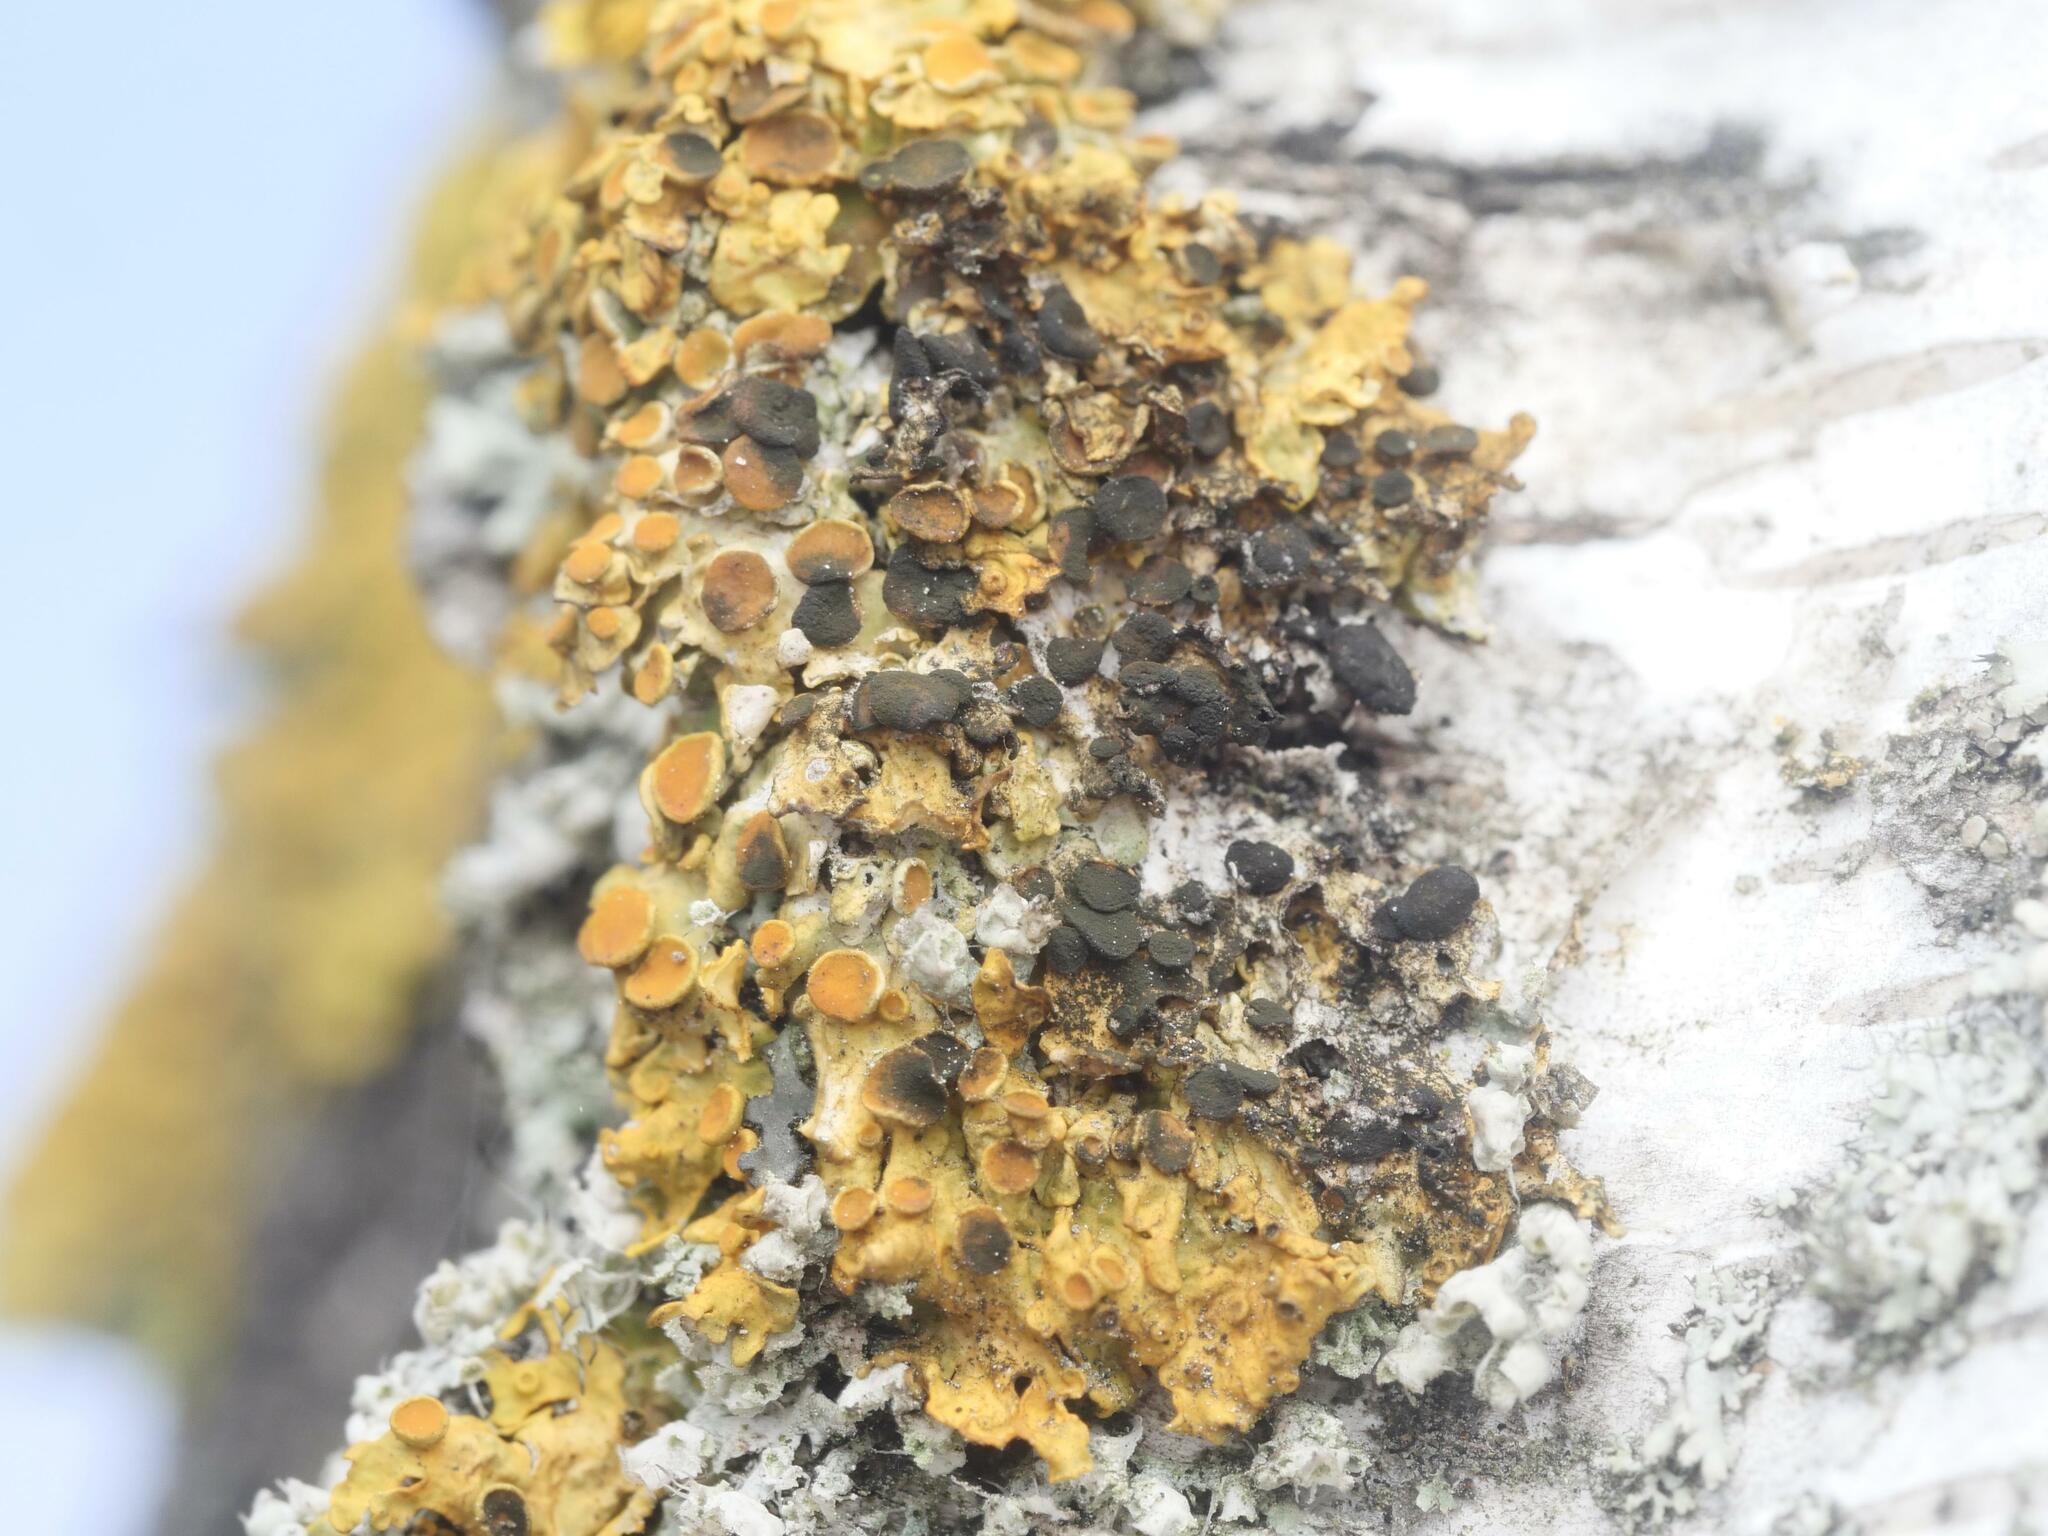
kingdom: Fungi
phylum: Ascomycota
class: Dothideomycetes
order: Mycosphaerellales
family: Teratosphaeriaceae
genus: Xanthoriicola
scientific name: Xanthoriicola physciae
